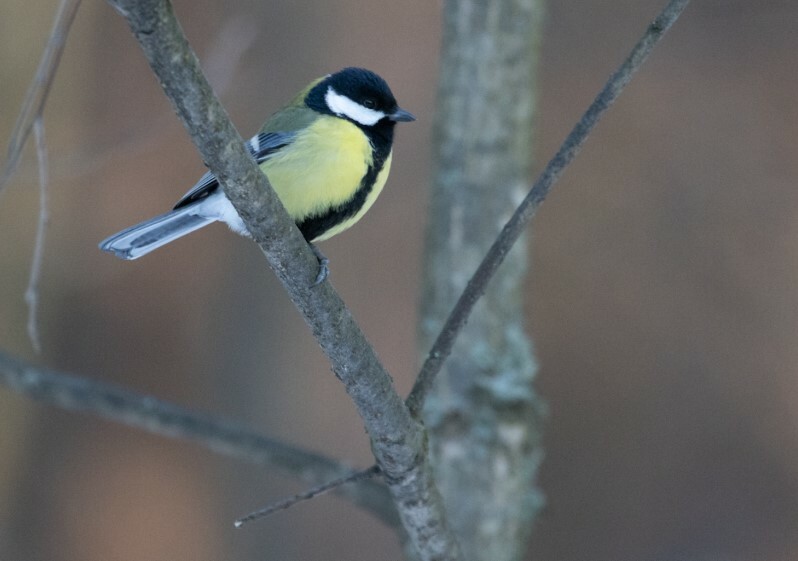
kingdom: Animalia
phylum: Chordata
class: Aves
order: Passeriformes
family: Paridae
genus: Parus
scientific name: Parus major
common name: Great tit
